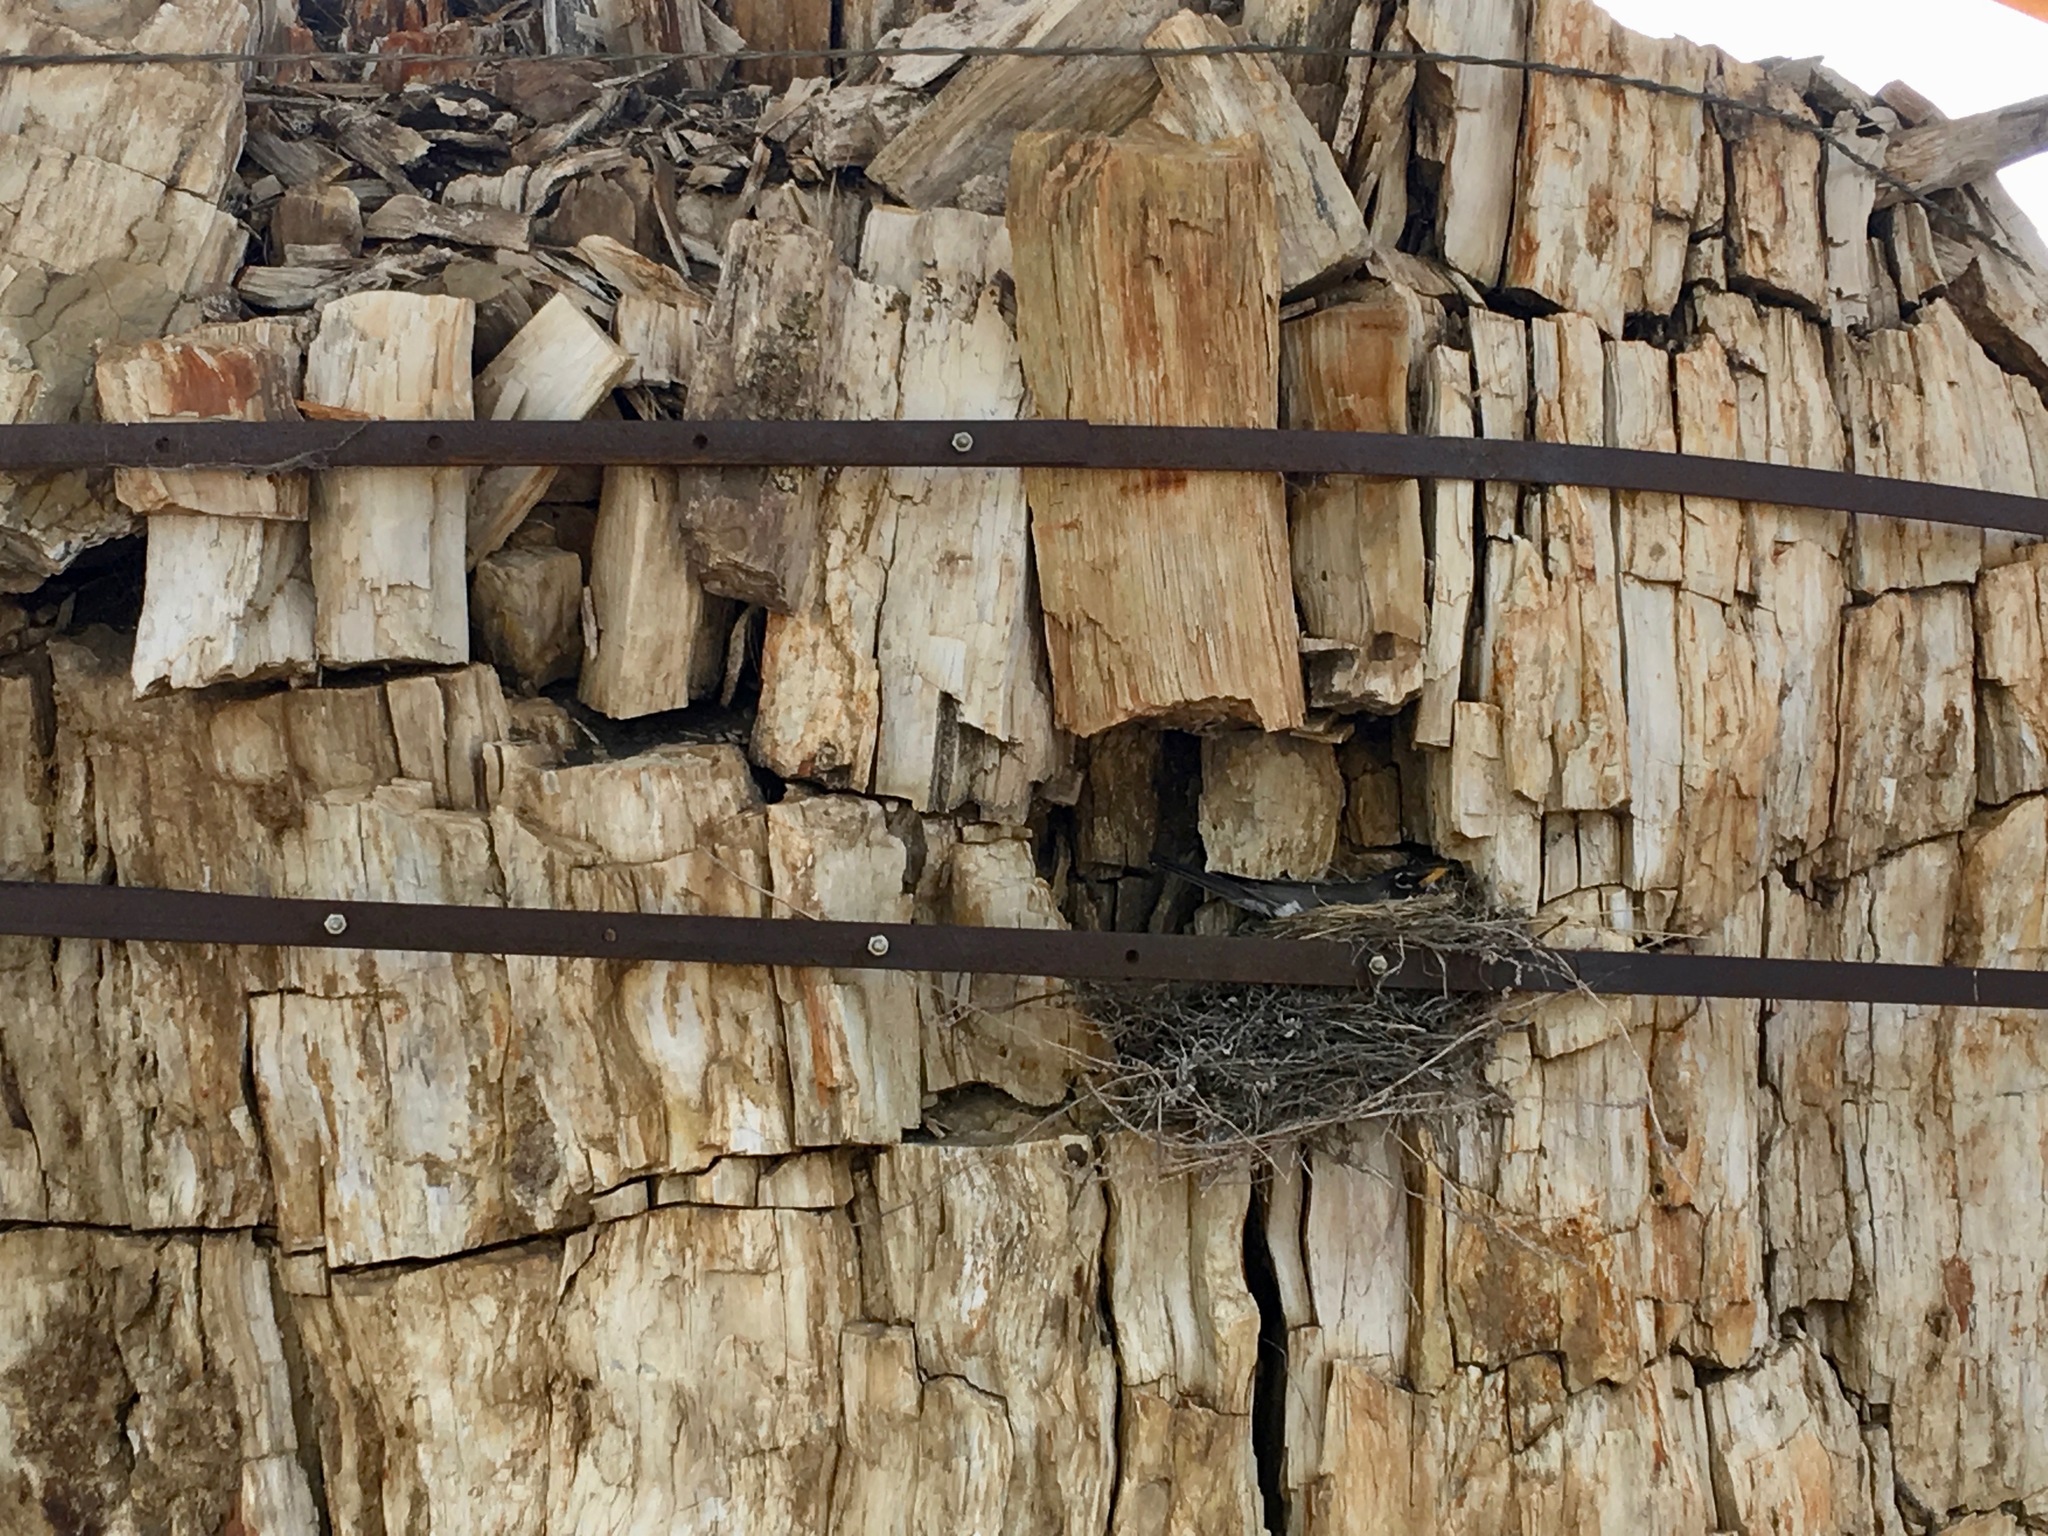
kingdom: Animalia
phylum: Chordata
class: Aves
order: Passeriformes
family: Turdidae
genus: Turdus
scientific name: Turdus migratorius
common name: American robin
